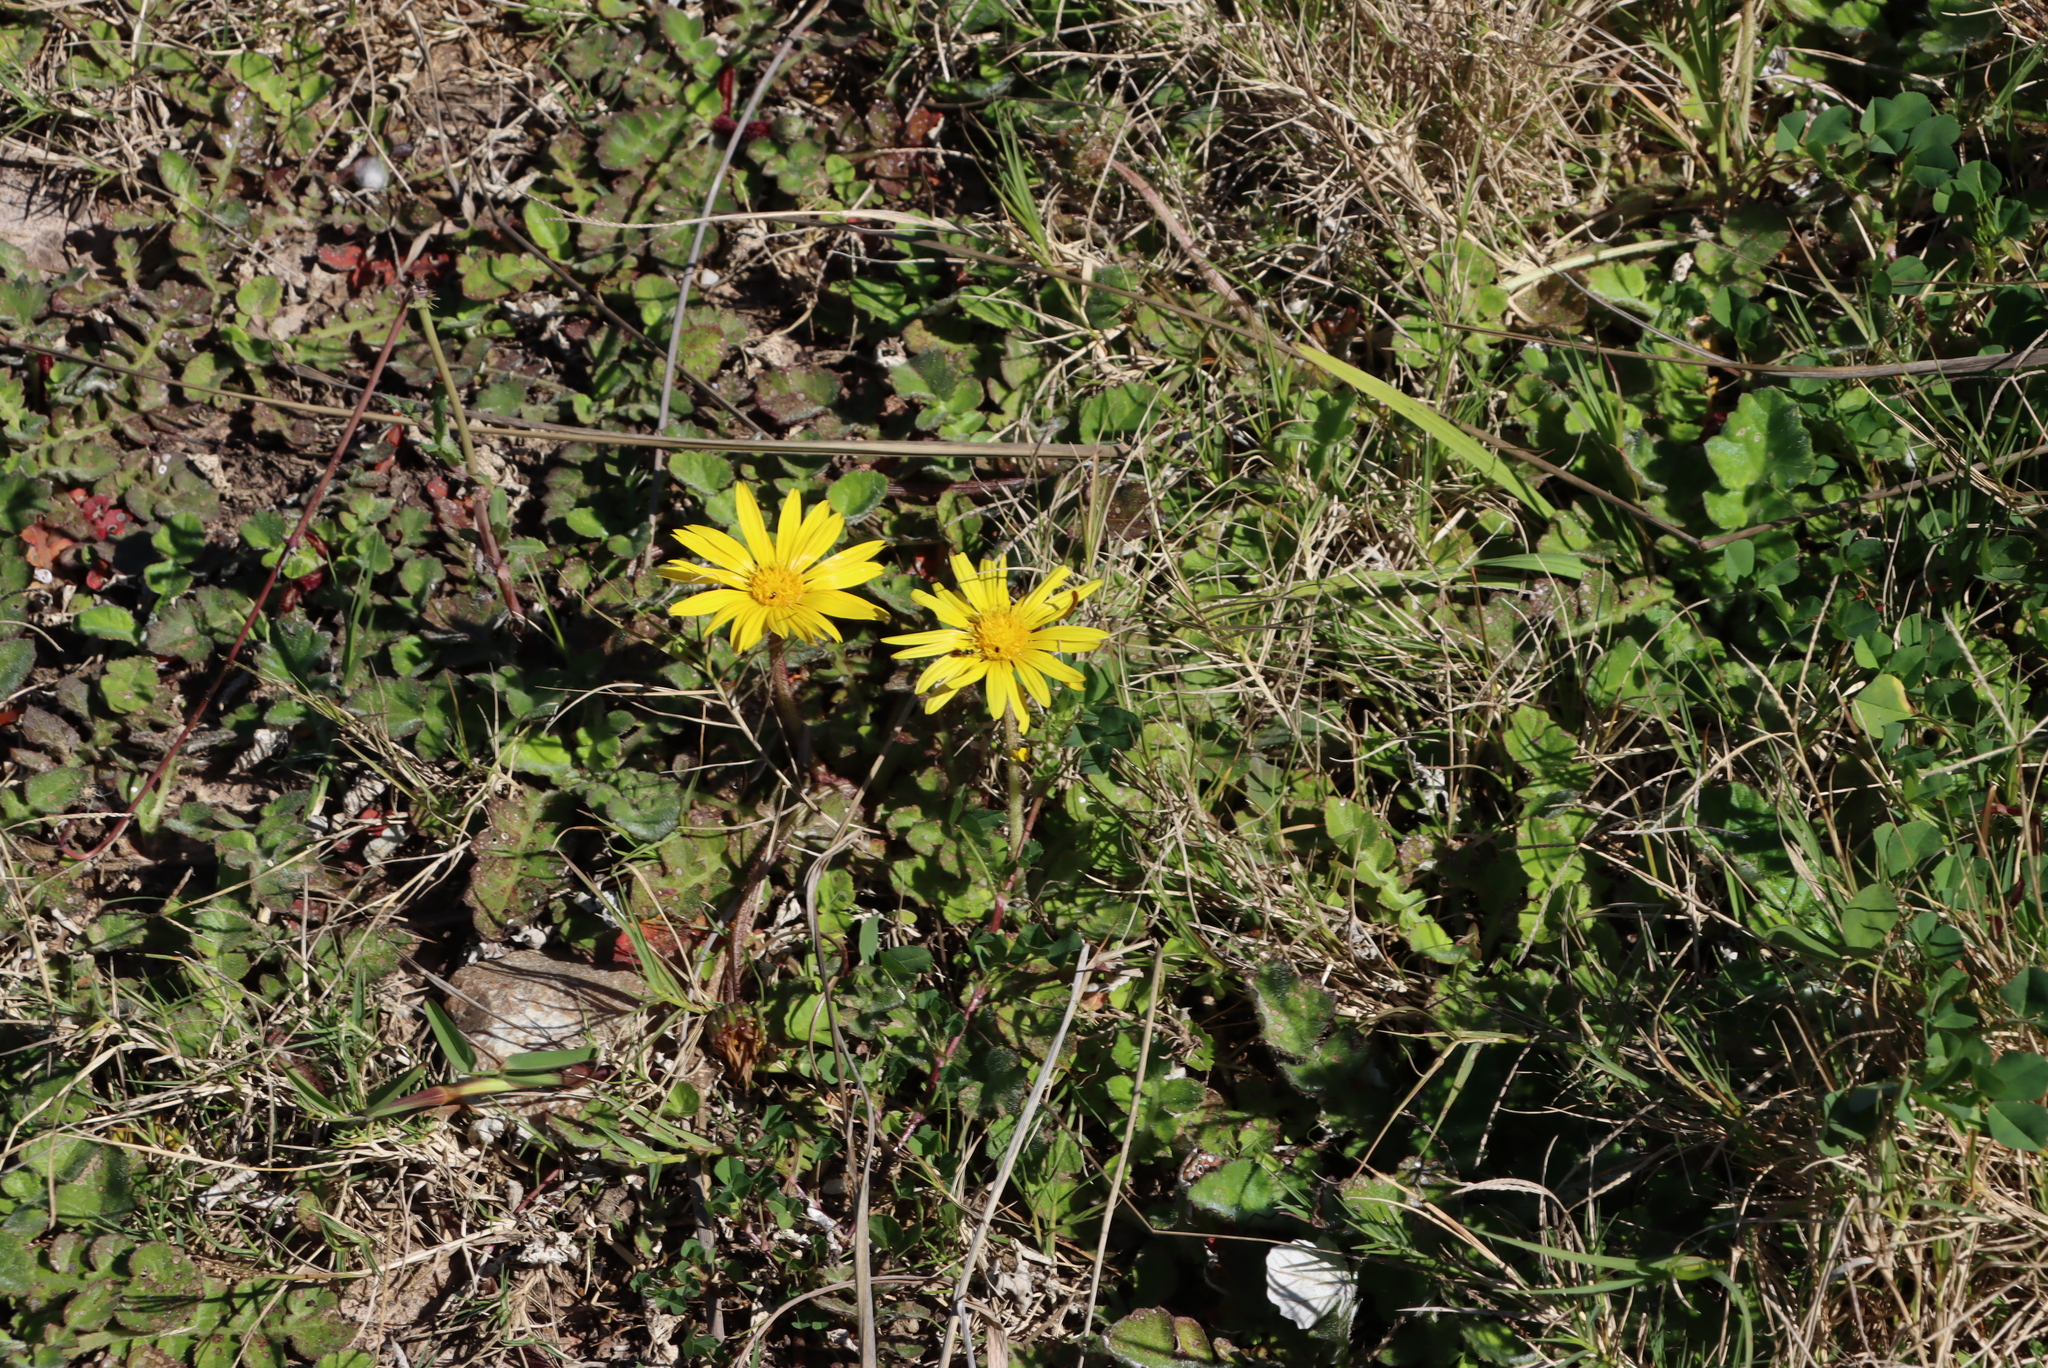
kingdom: Plantae
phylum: Tracheophyta
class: Magnoliopsida
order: Asterales
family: Asteraceae
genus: Arctotheca
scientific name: Arctotheca prostrata
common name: Capeweed
